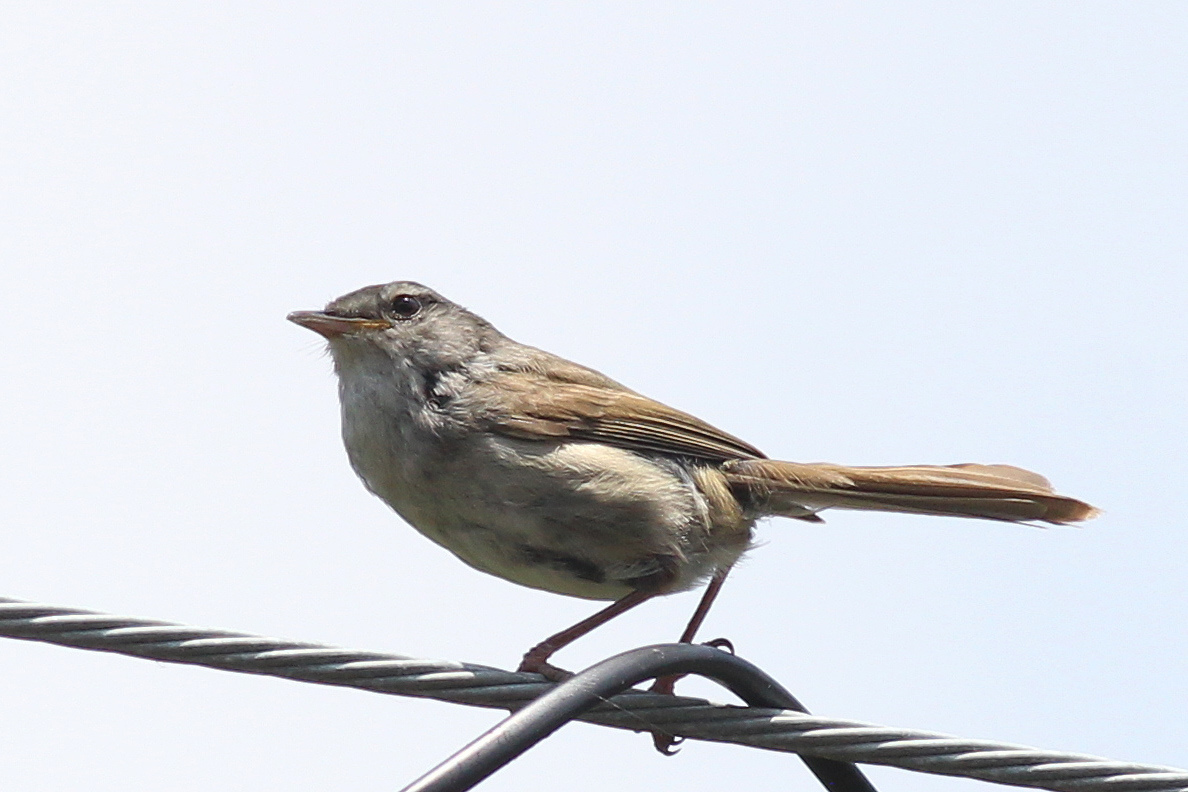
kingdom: Animalia
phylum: Chordata
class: Aves
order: Passeriformes
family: Cettiidae
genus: Horornis
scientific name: Horornis diphone
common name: Japanese bush warbler
